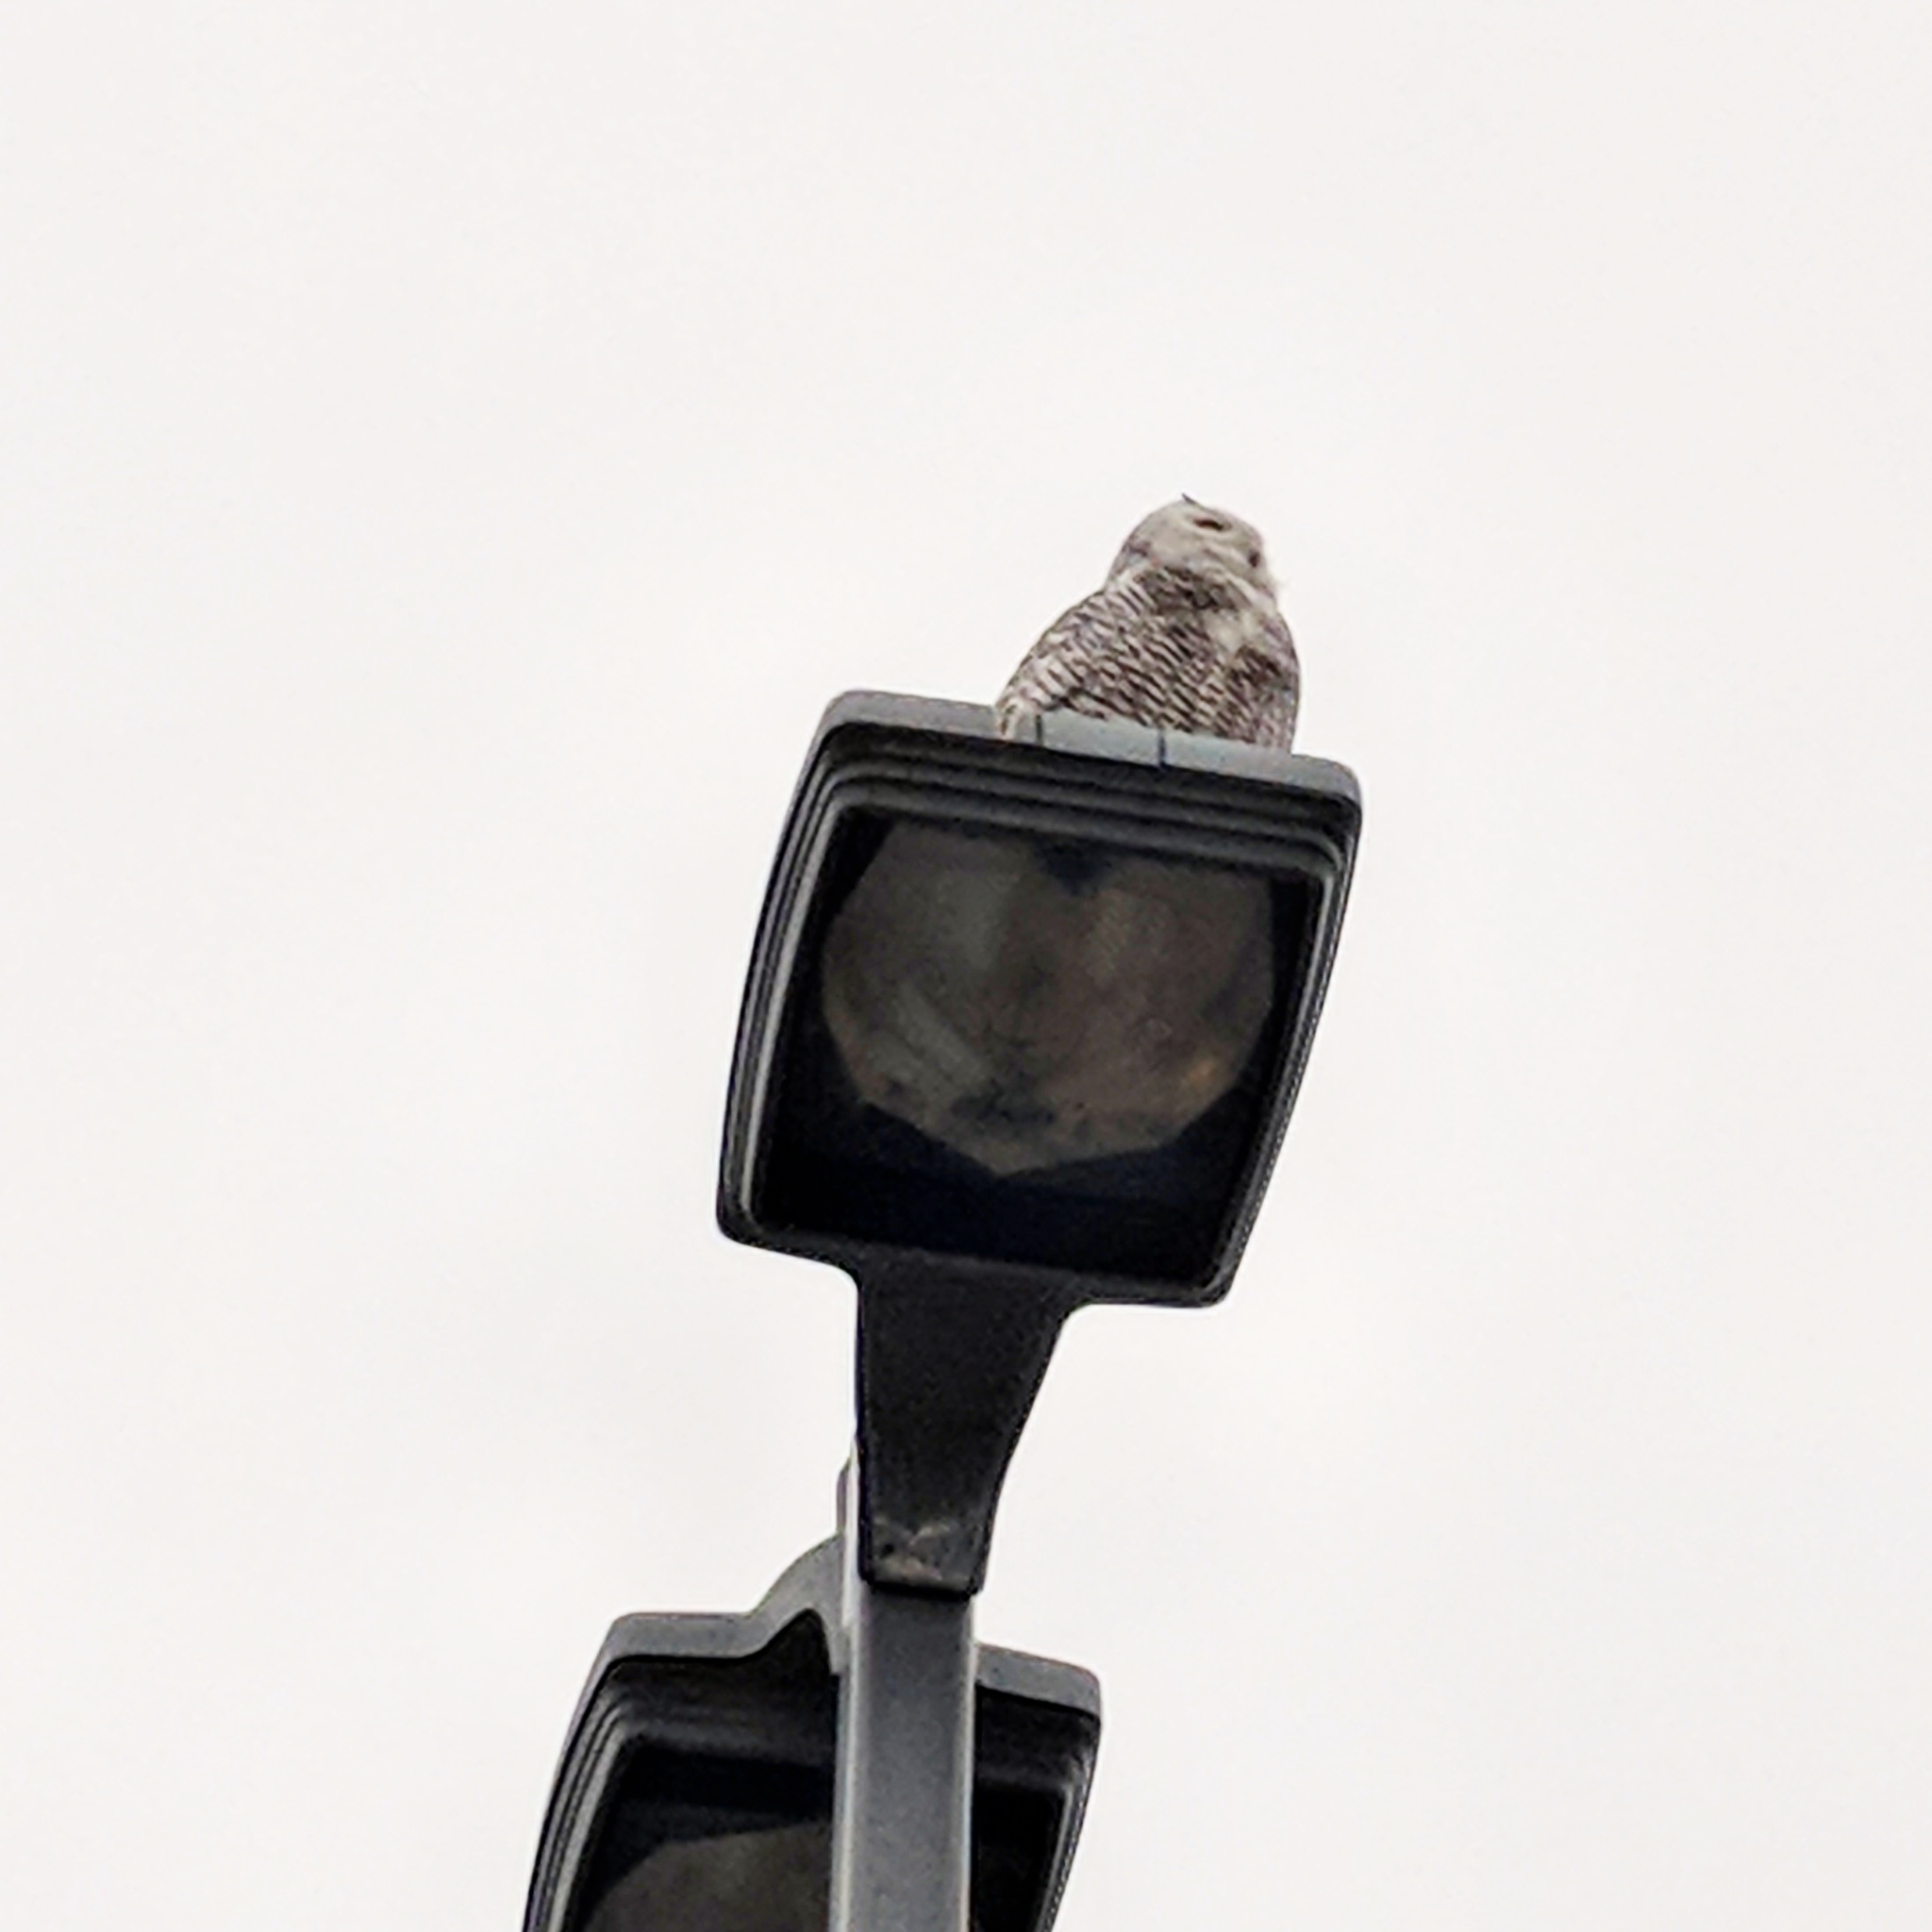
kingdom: Animalia
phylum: Chordata
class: Aves
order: Strigiformes
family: Strigidae
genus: Bubo
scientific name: Bubo scandiacus
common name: Snowy owl
